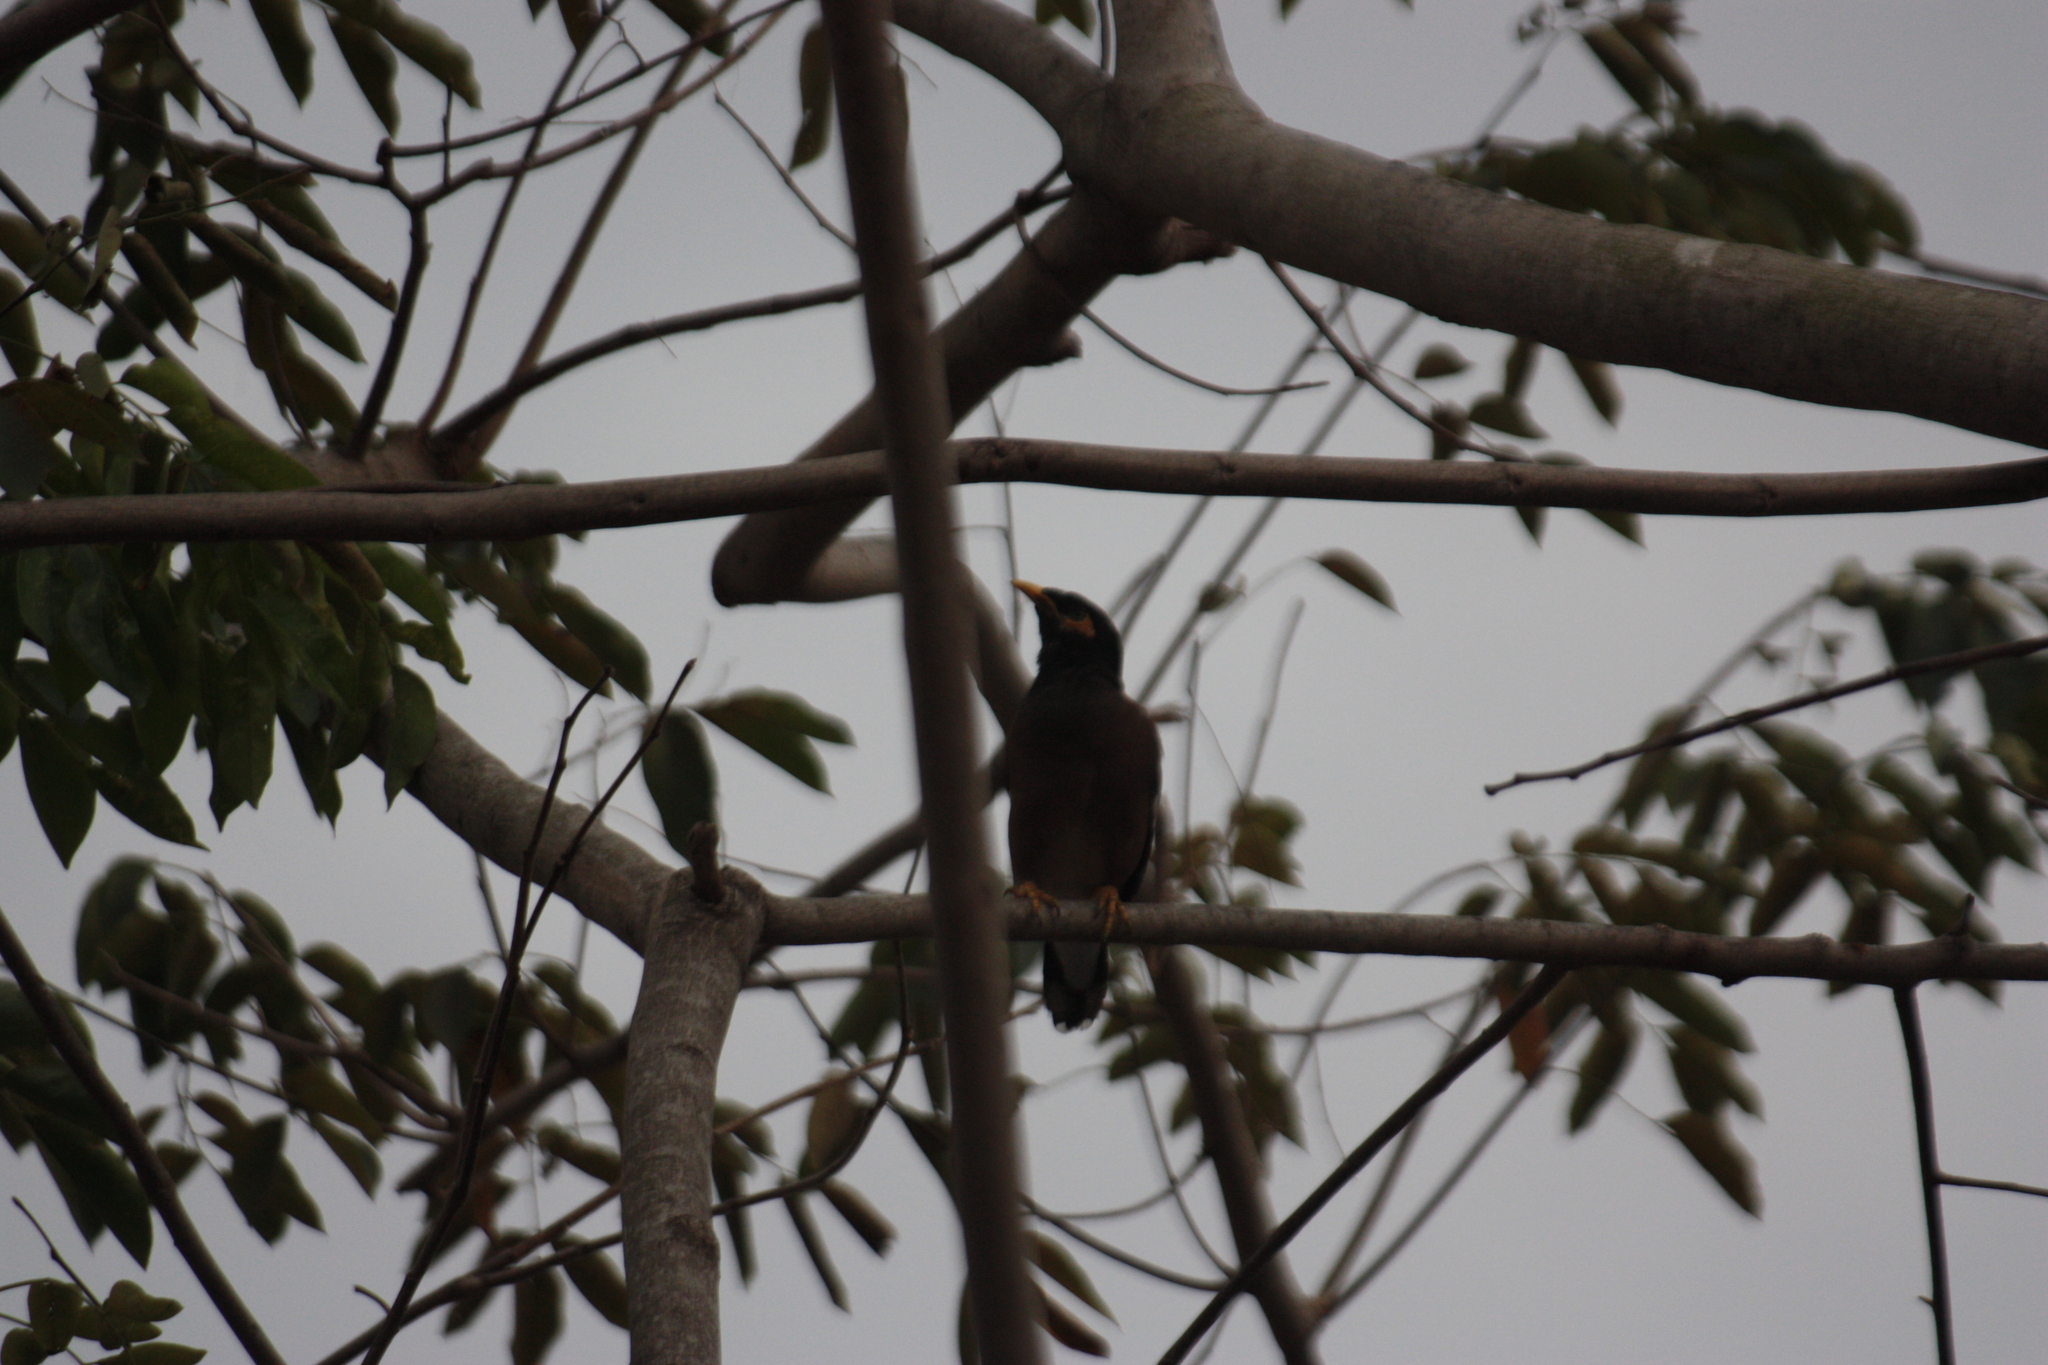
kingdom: Animalia
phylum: Chordata
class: Aves
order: Passeriformes
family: Sturnidae
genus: Acridotheres
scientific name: Acridotheres tristis
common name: Common myna
